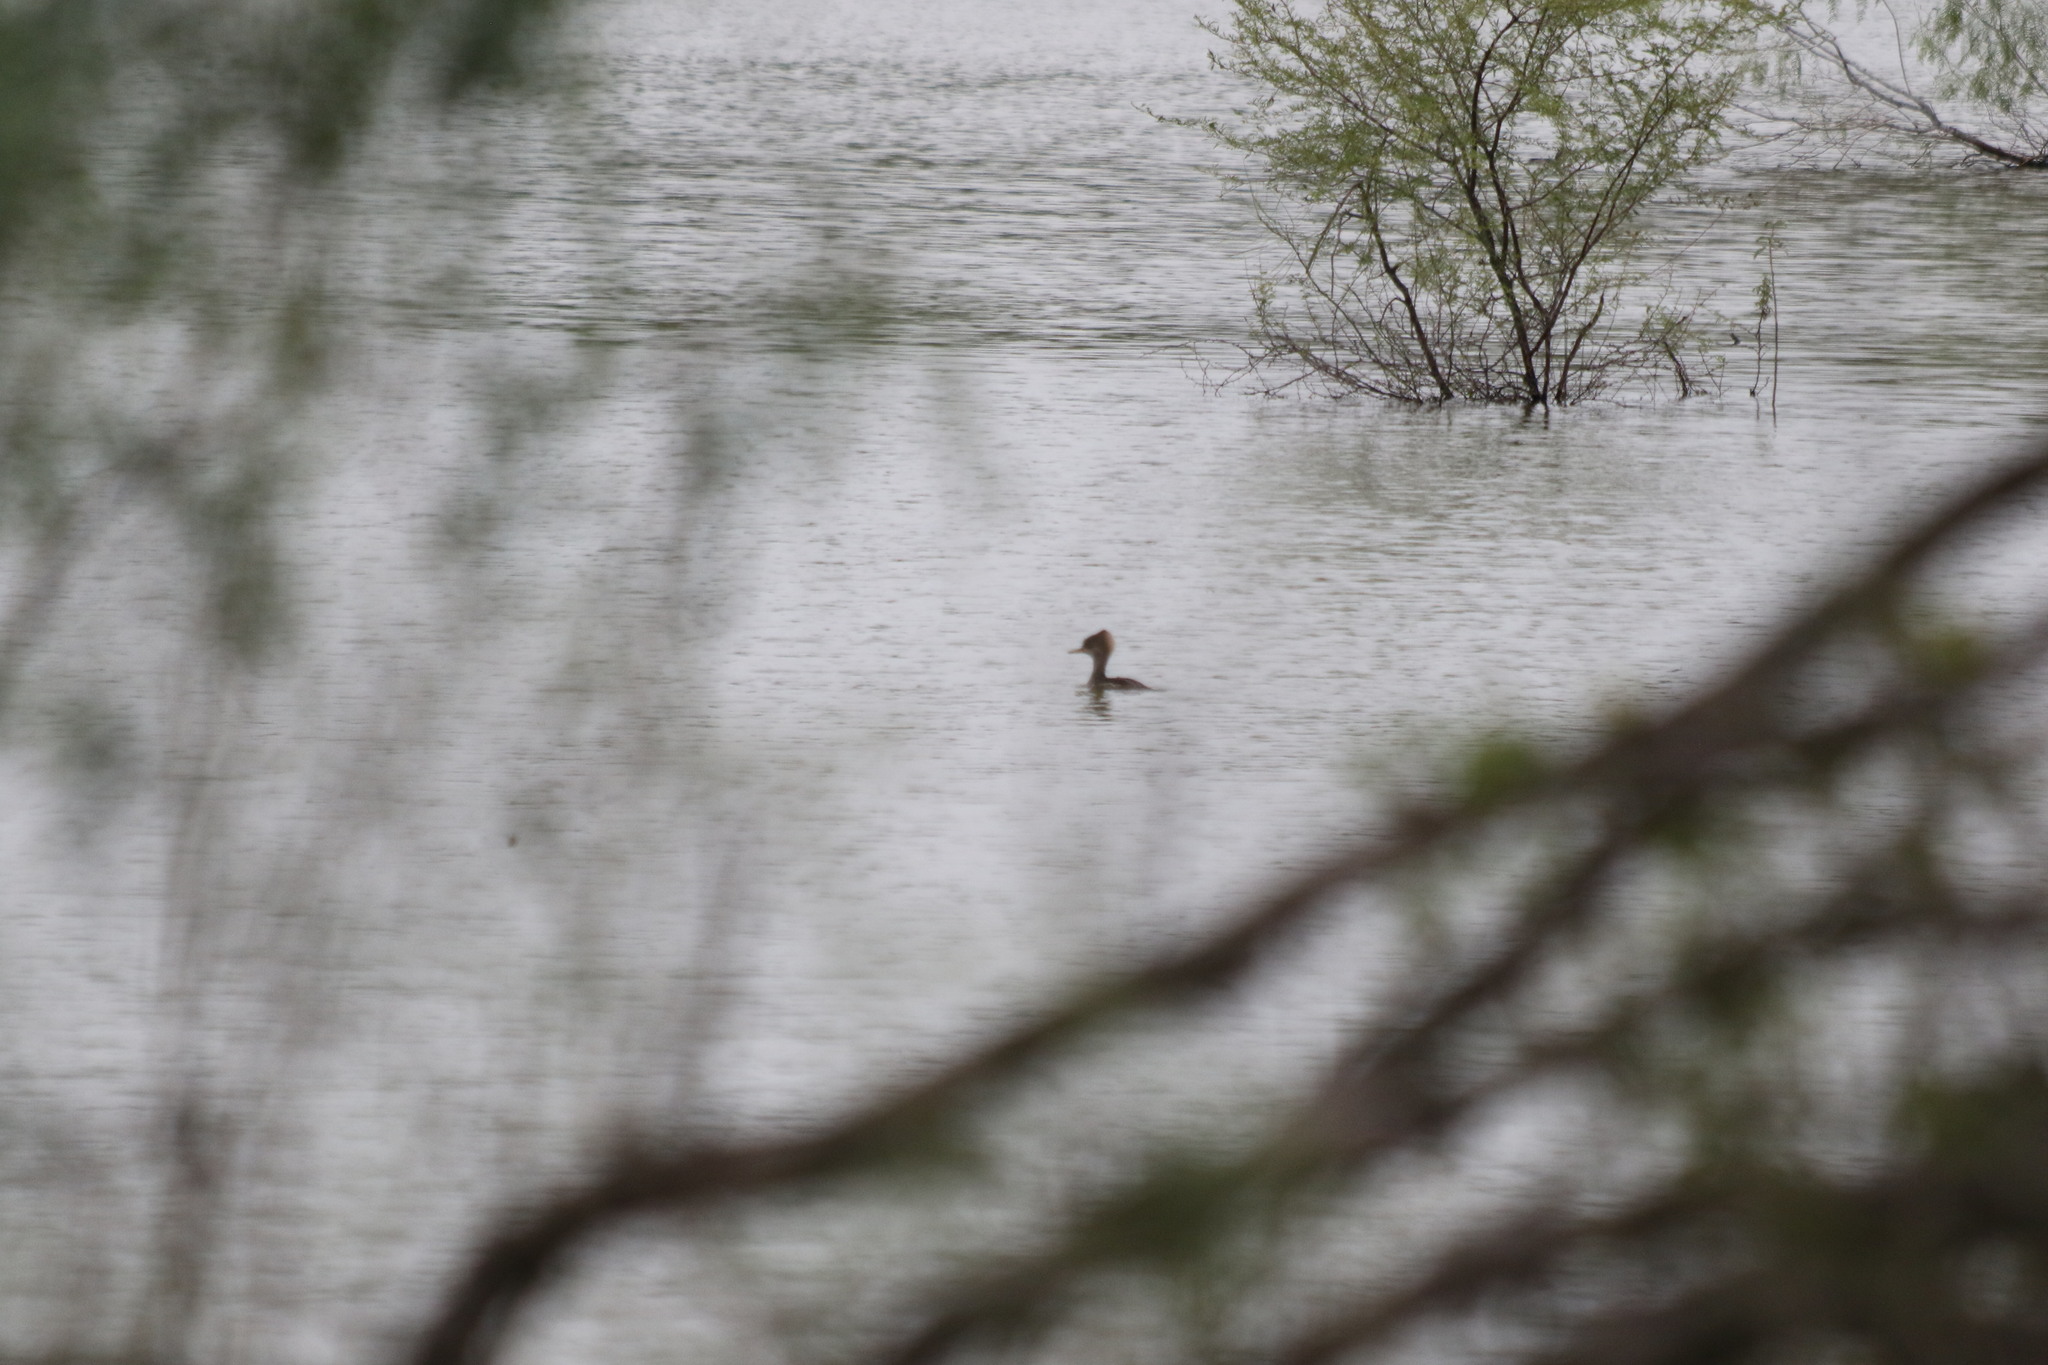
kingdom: Animalia
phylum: Chordata
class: Aves
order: Anseriformes
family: Anatidae
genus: Lophodytes
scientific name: Lophodytes cucullatus
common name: Hooded merganser
